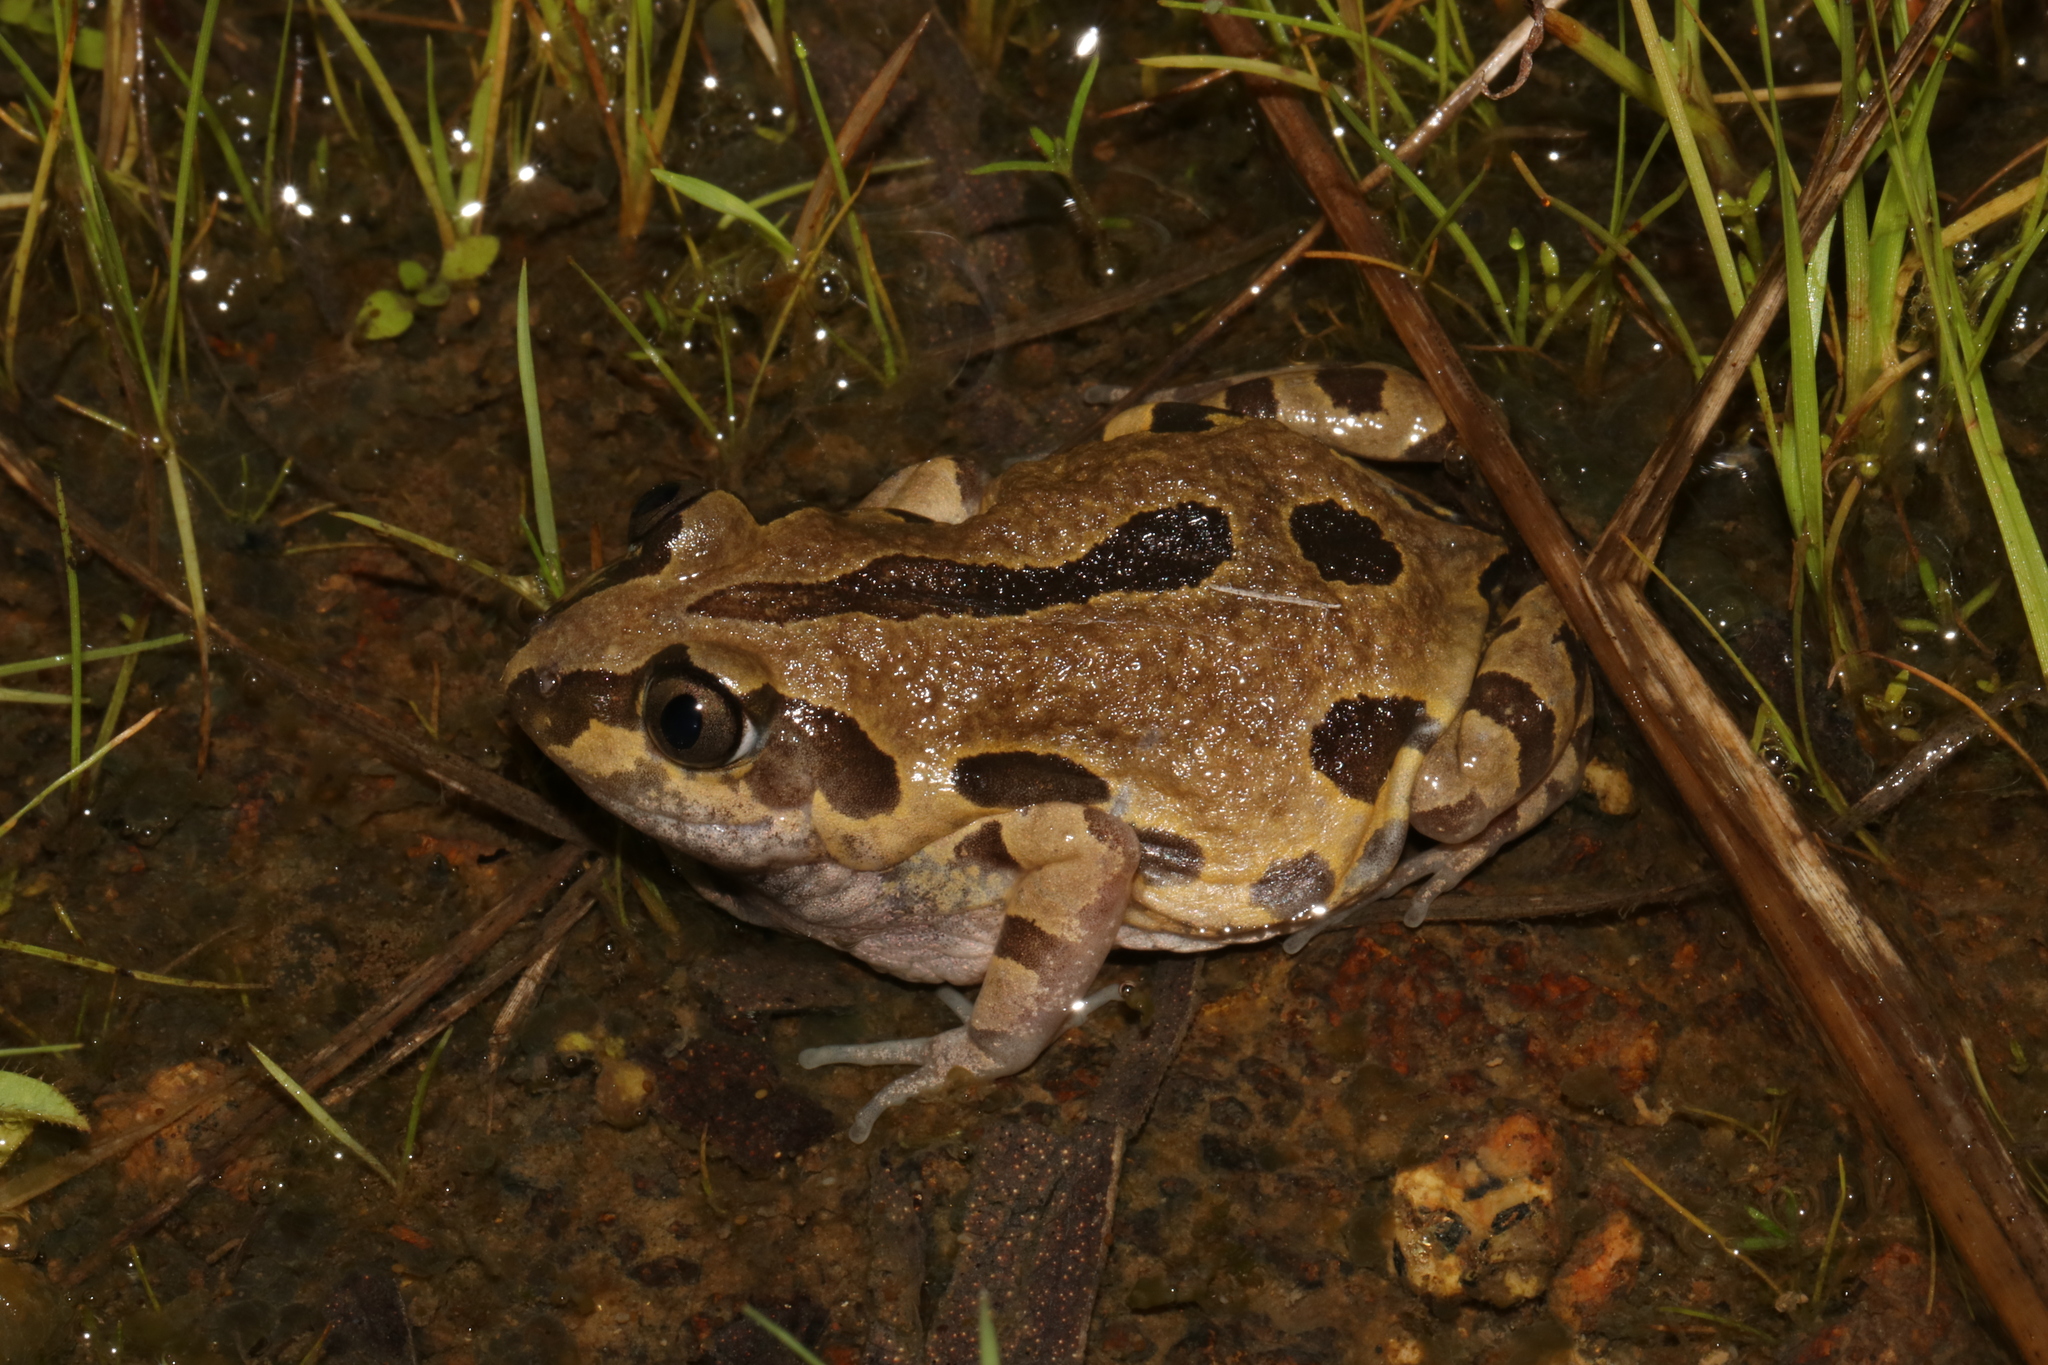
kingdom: Animalia
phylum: Chordata
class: Amphibia
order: Anura
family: Hyperoliidae
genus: Kassina
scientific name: Kassina senegalensis
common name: Senegal land frog
